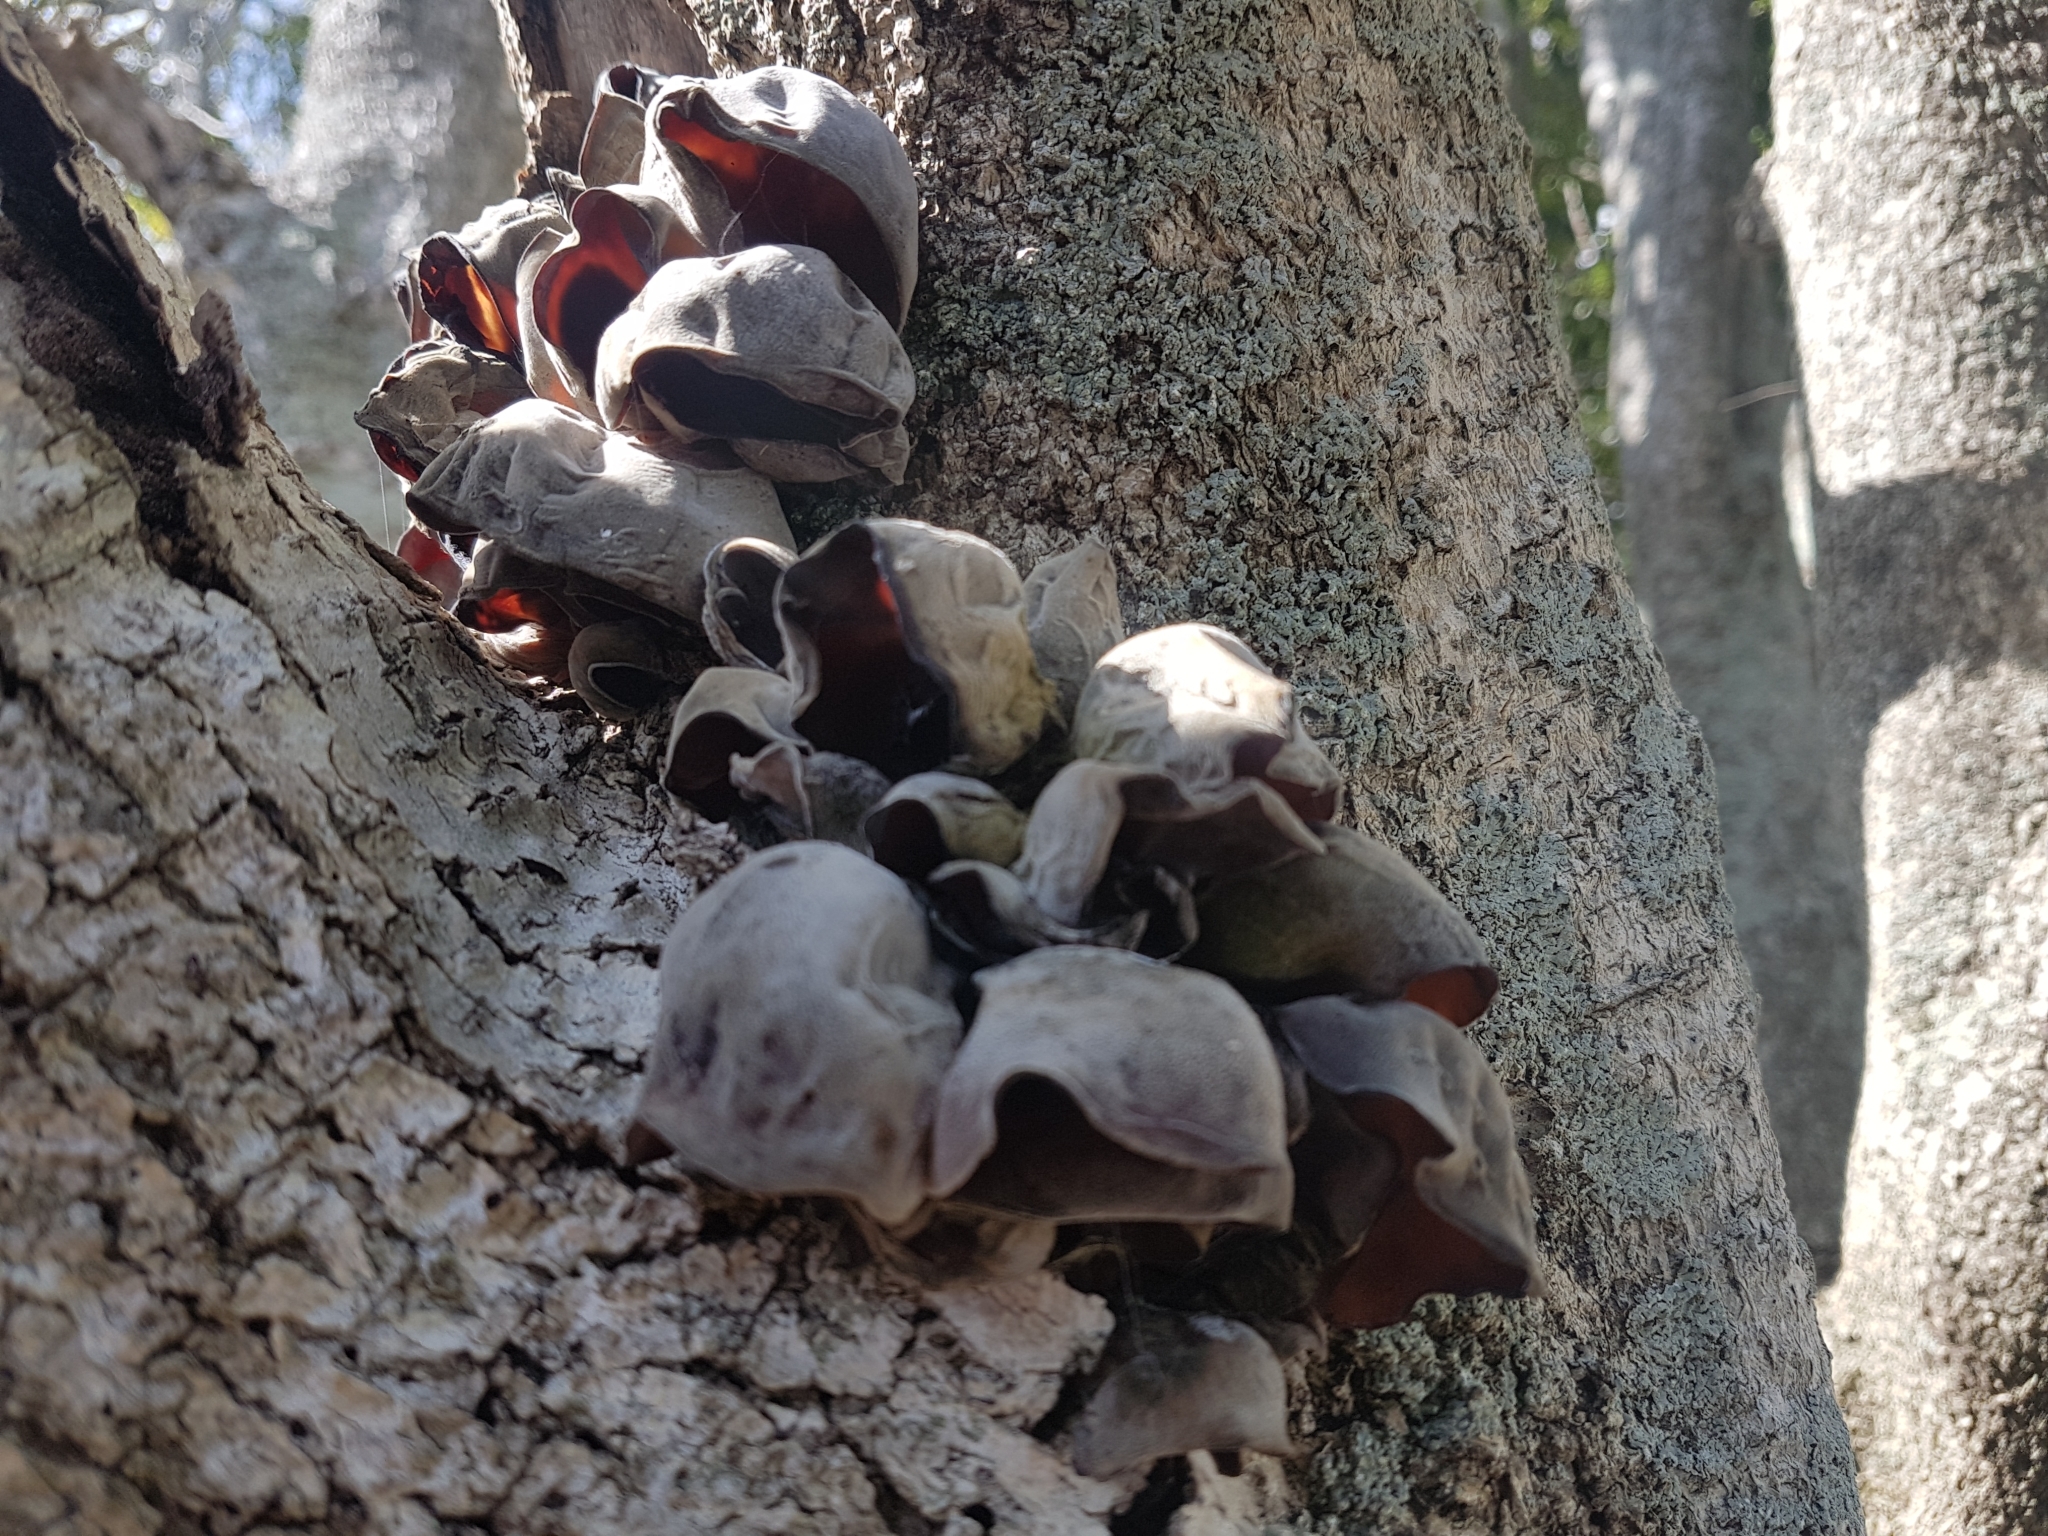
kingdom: Fungi
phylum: Basidiomycota
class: Agaricomycetes
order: Auriculariales
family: Auriculariaceae
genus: Auricularia
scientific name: Auricularia cornea
